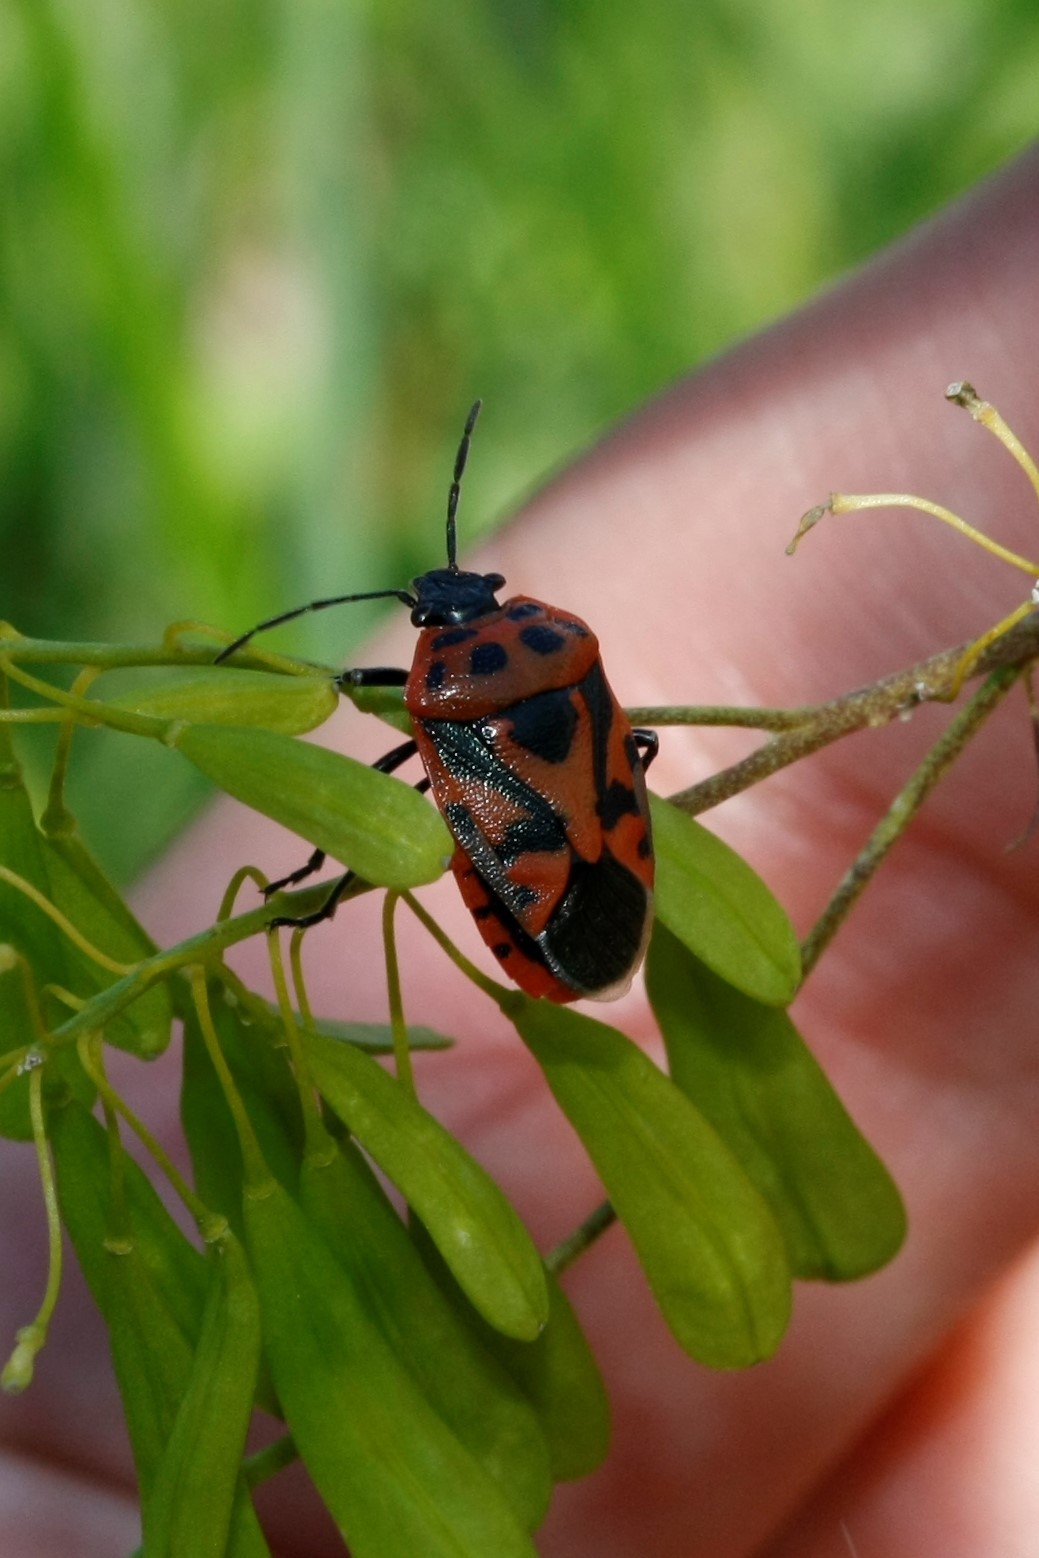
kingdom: Animalia
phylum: Arthropoda
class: Insecta
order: Hemiptera
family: Pentatomidae
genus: Eurydema
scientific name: Eurydema ornata
